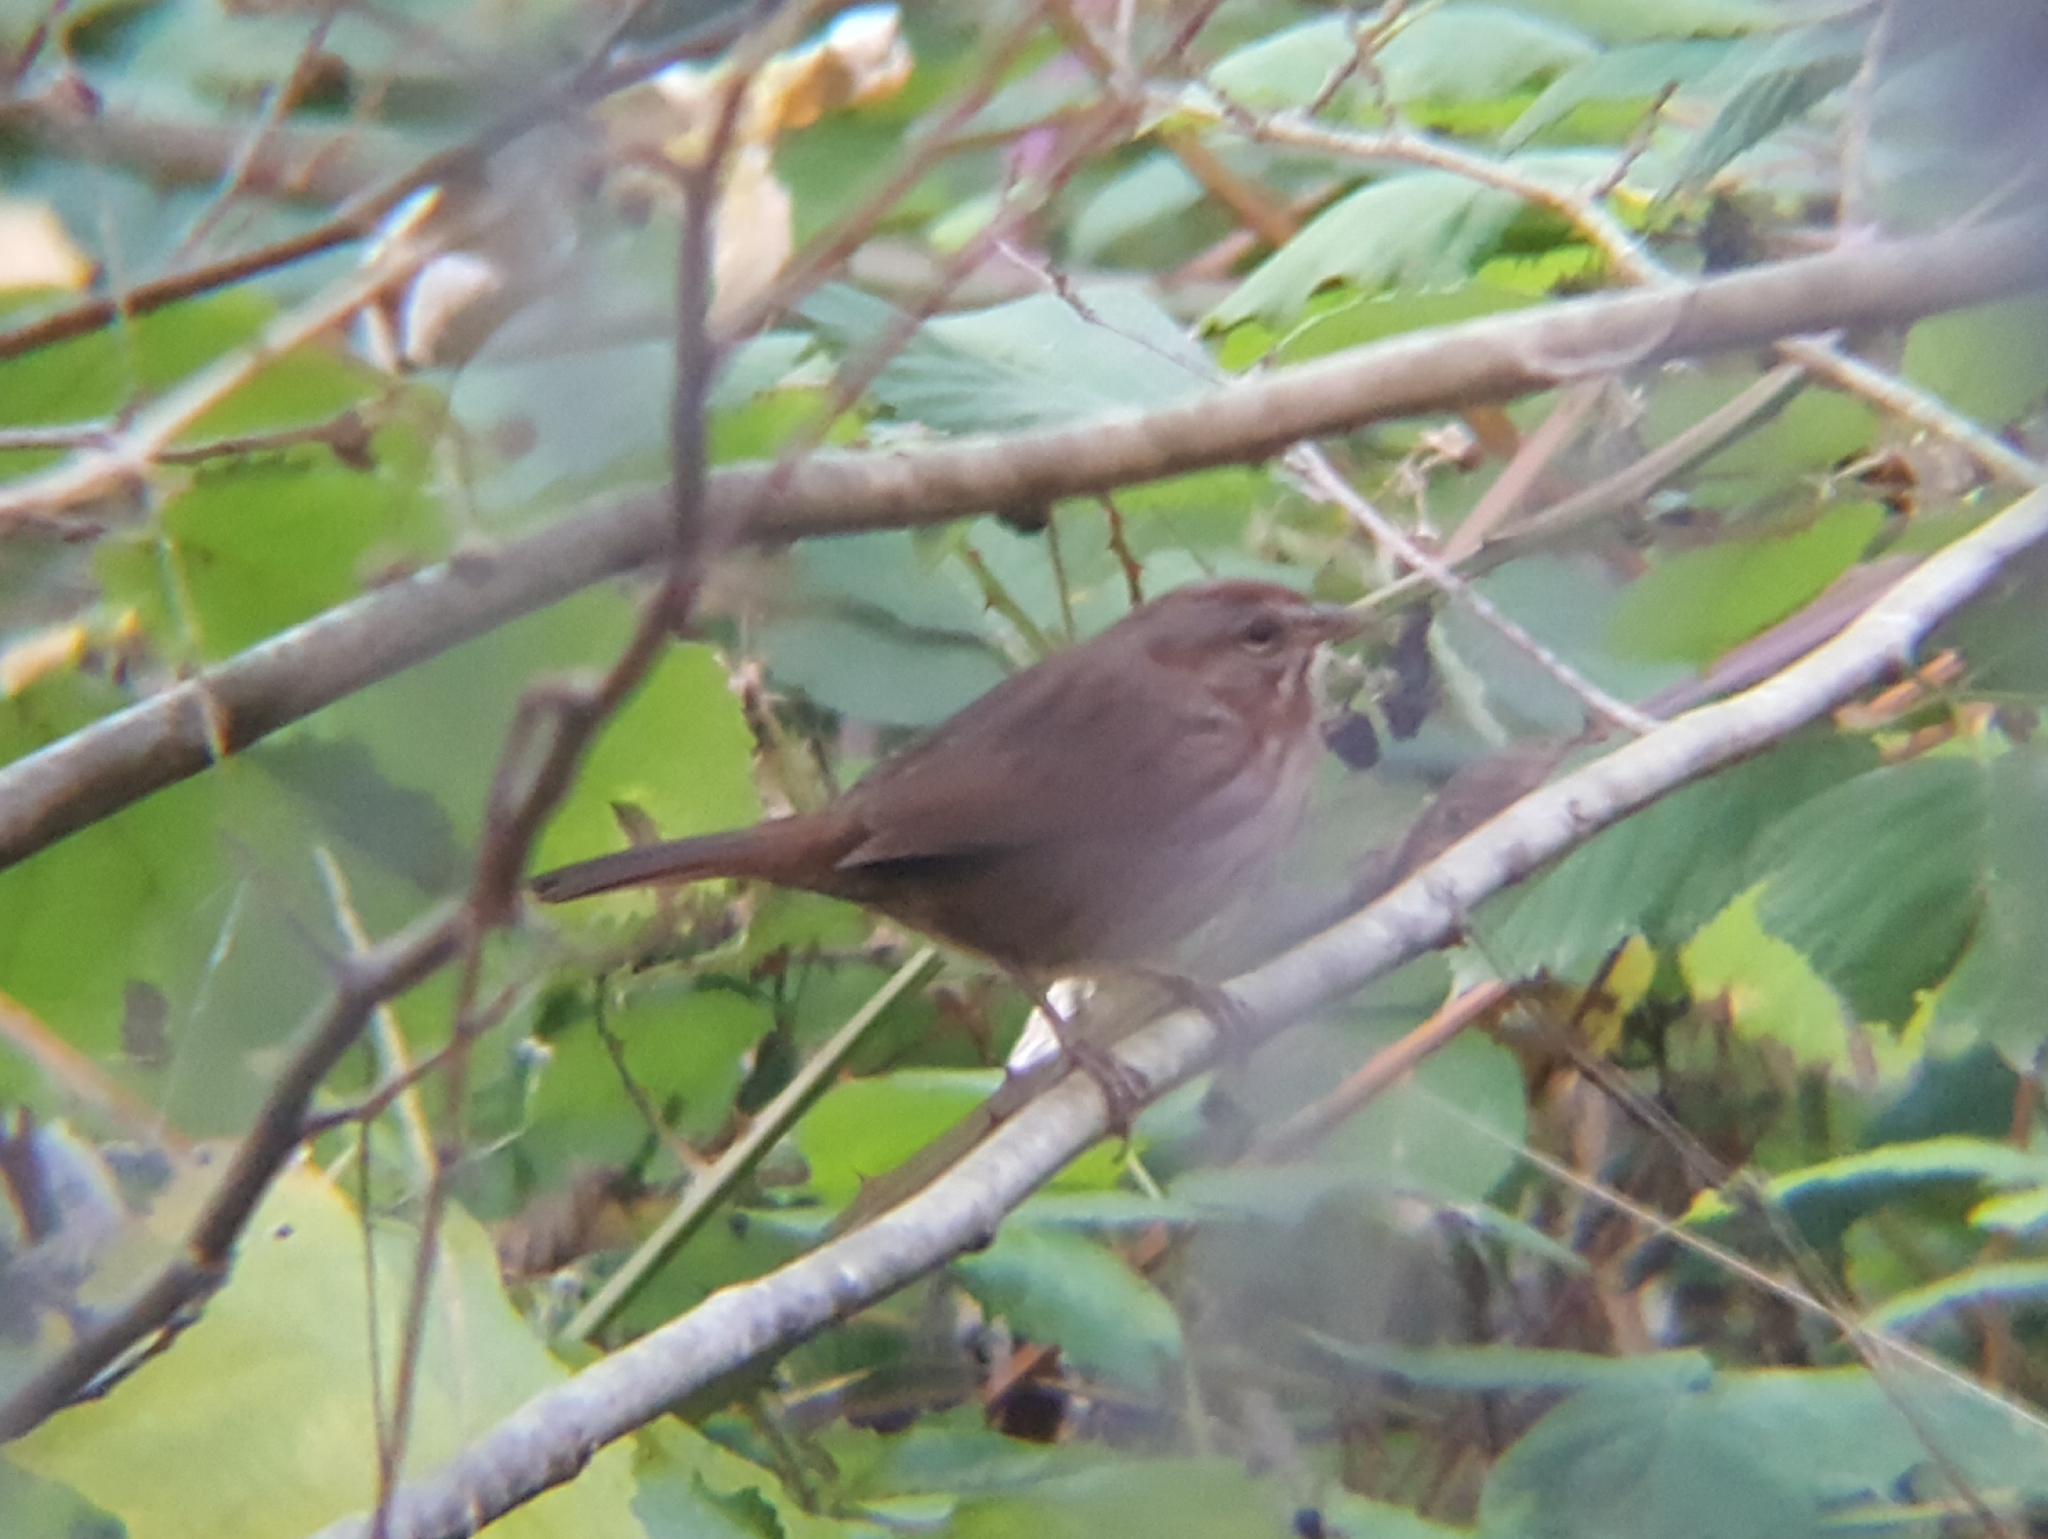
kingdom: Animalia
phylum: Chordata
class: Aves
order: Passeriformes
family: Passerellidae
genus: Melospiza
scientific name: Melospiza melodia
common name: Song sparrow
